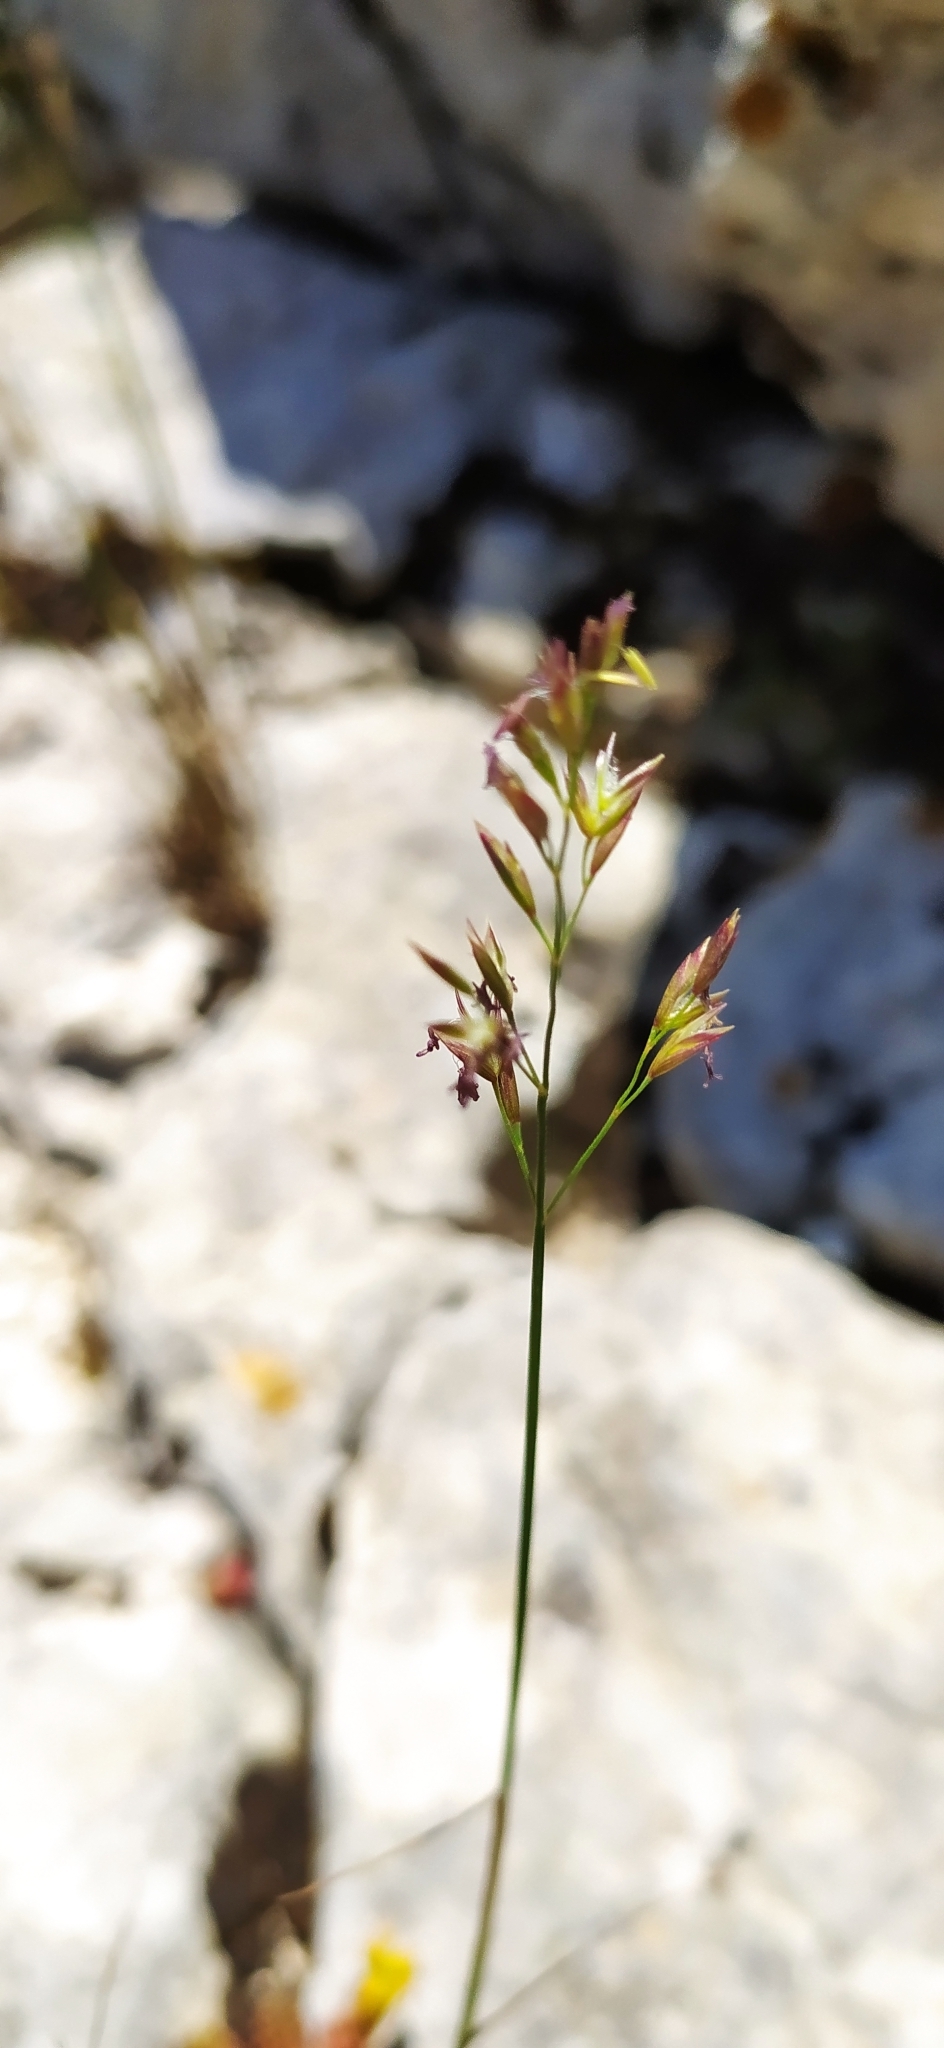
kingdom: Plantae
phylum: Tracheophyta
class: Liliopsida
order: Poales
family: Poaceae
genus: Poa
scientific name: Poa sterilis
